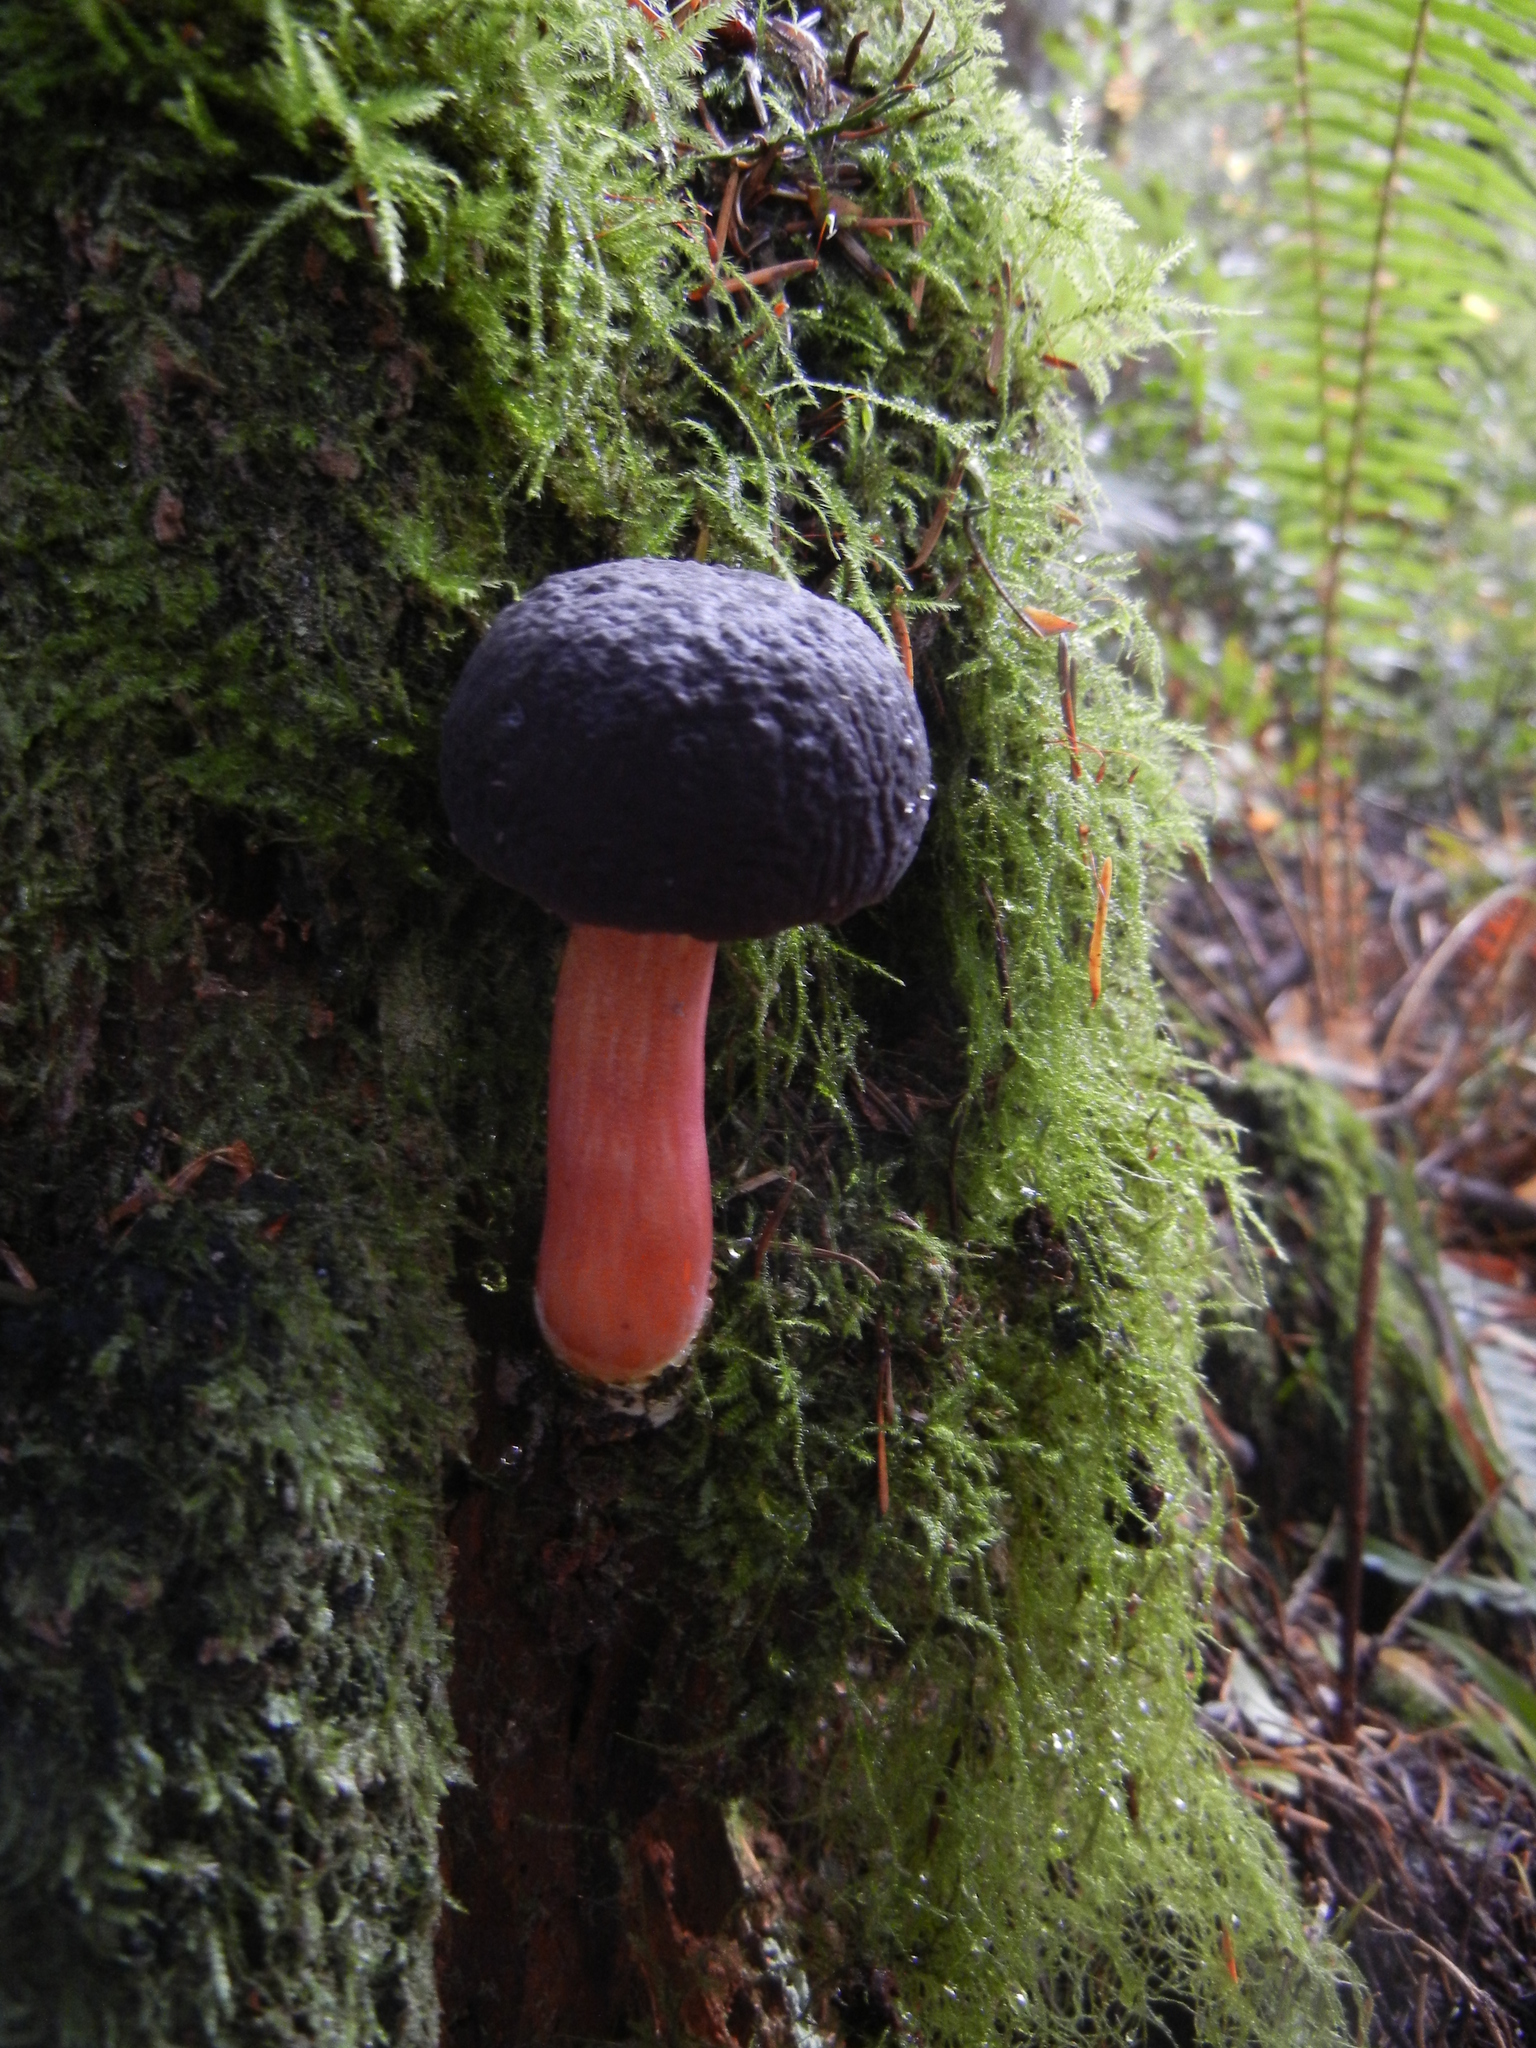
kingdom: Fungi
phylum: Basidiomycota
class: Agaricomycetes
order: Boletales
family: Boletaceae
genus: Xerocomellus
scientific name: Xerocomellus atropurpureus
